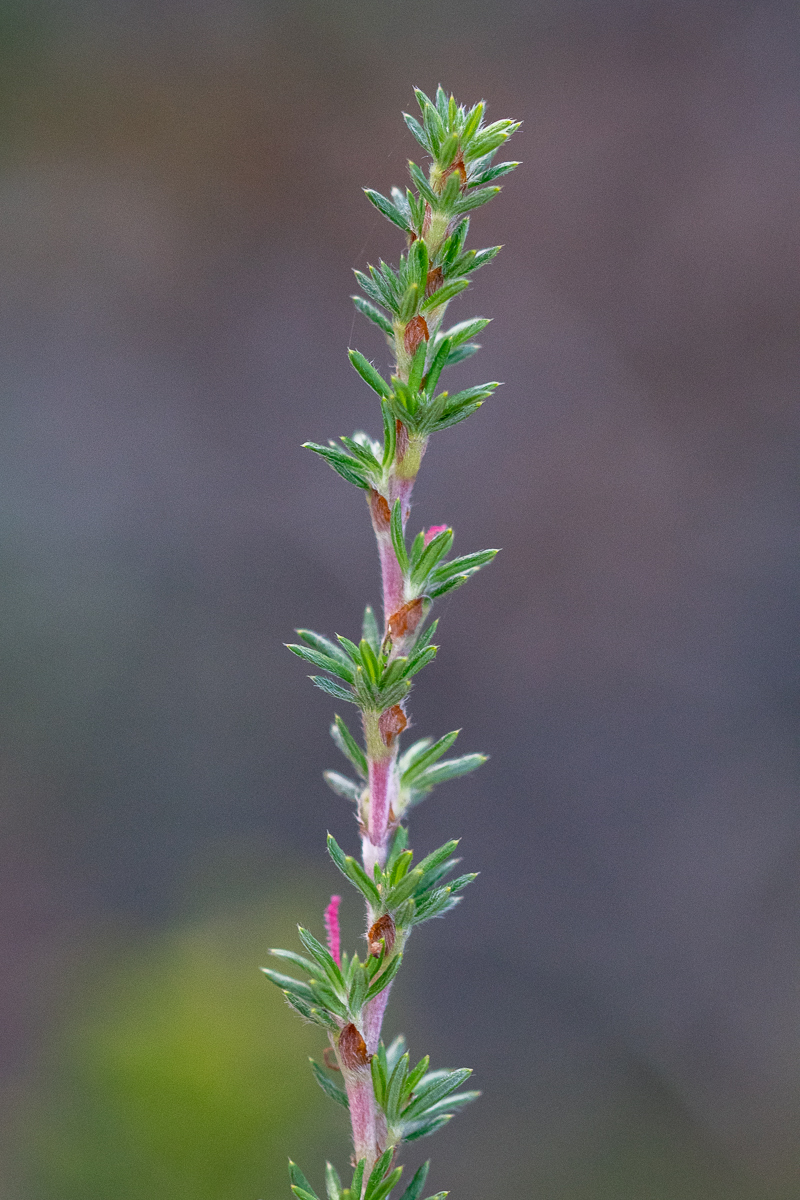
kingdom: Plantae
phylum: Tracheophyta
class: Magnoliopsida
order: Rosales
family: Rosaceae
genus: Cliffortia
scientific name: Cliffortia stricta
